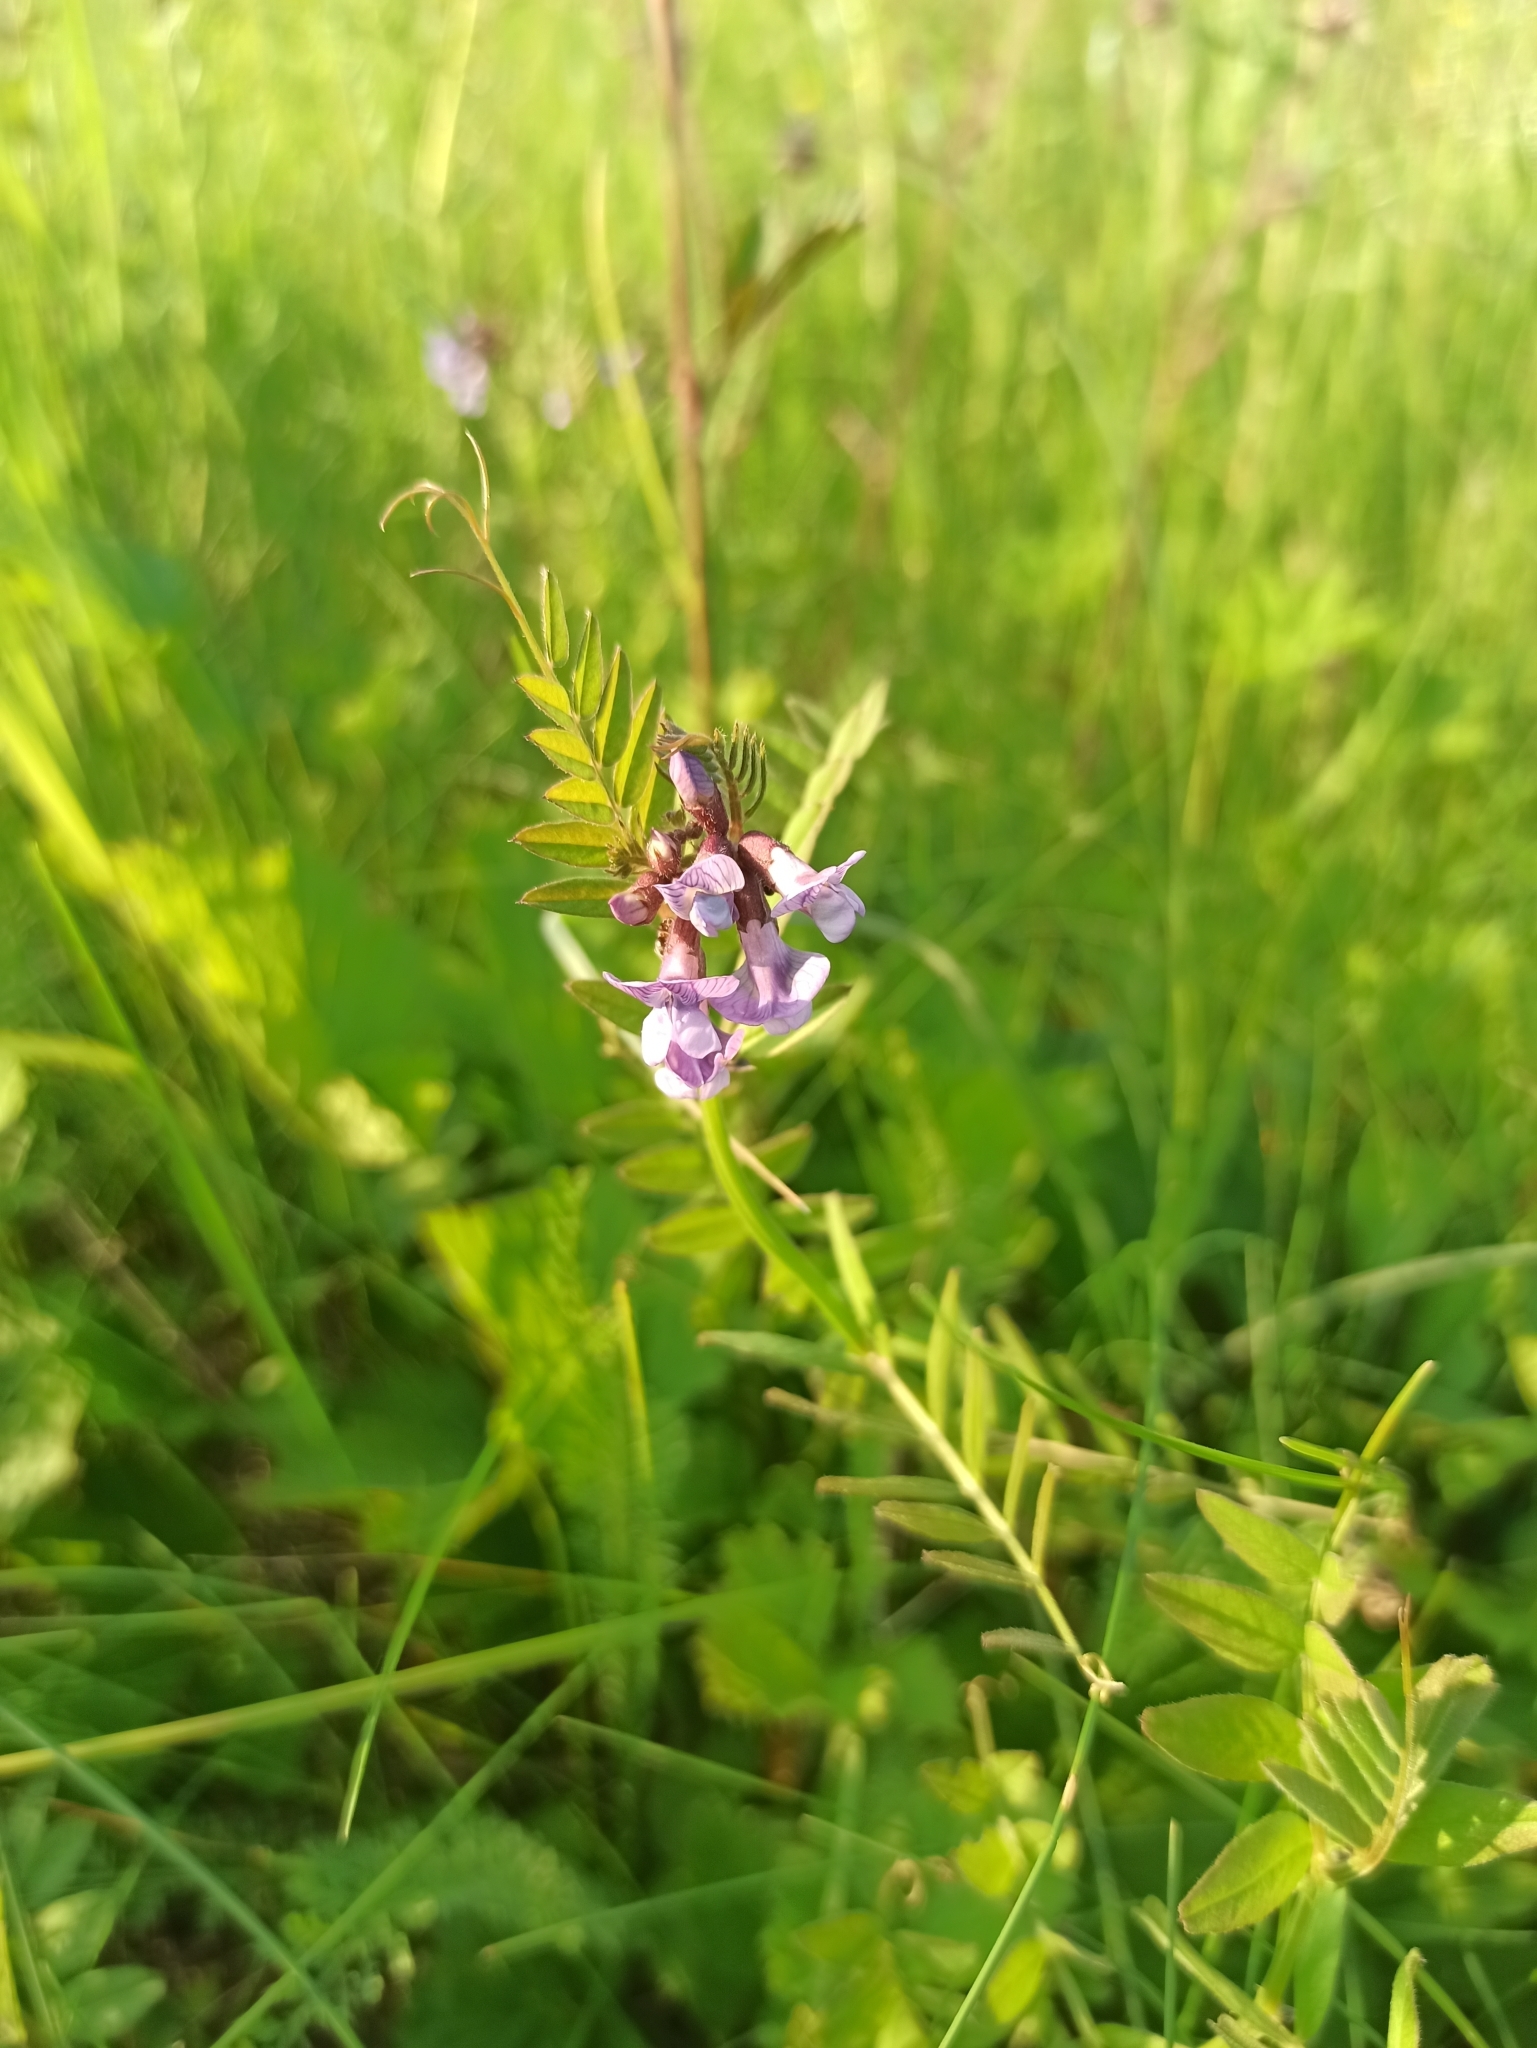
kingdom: Plantae
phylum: Tracheophyta
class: Magnoliopsida
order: Fabales
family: Fabaceae
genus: Vicia
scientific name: Vicia sepium
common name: Bush vetch
